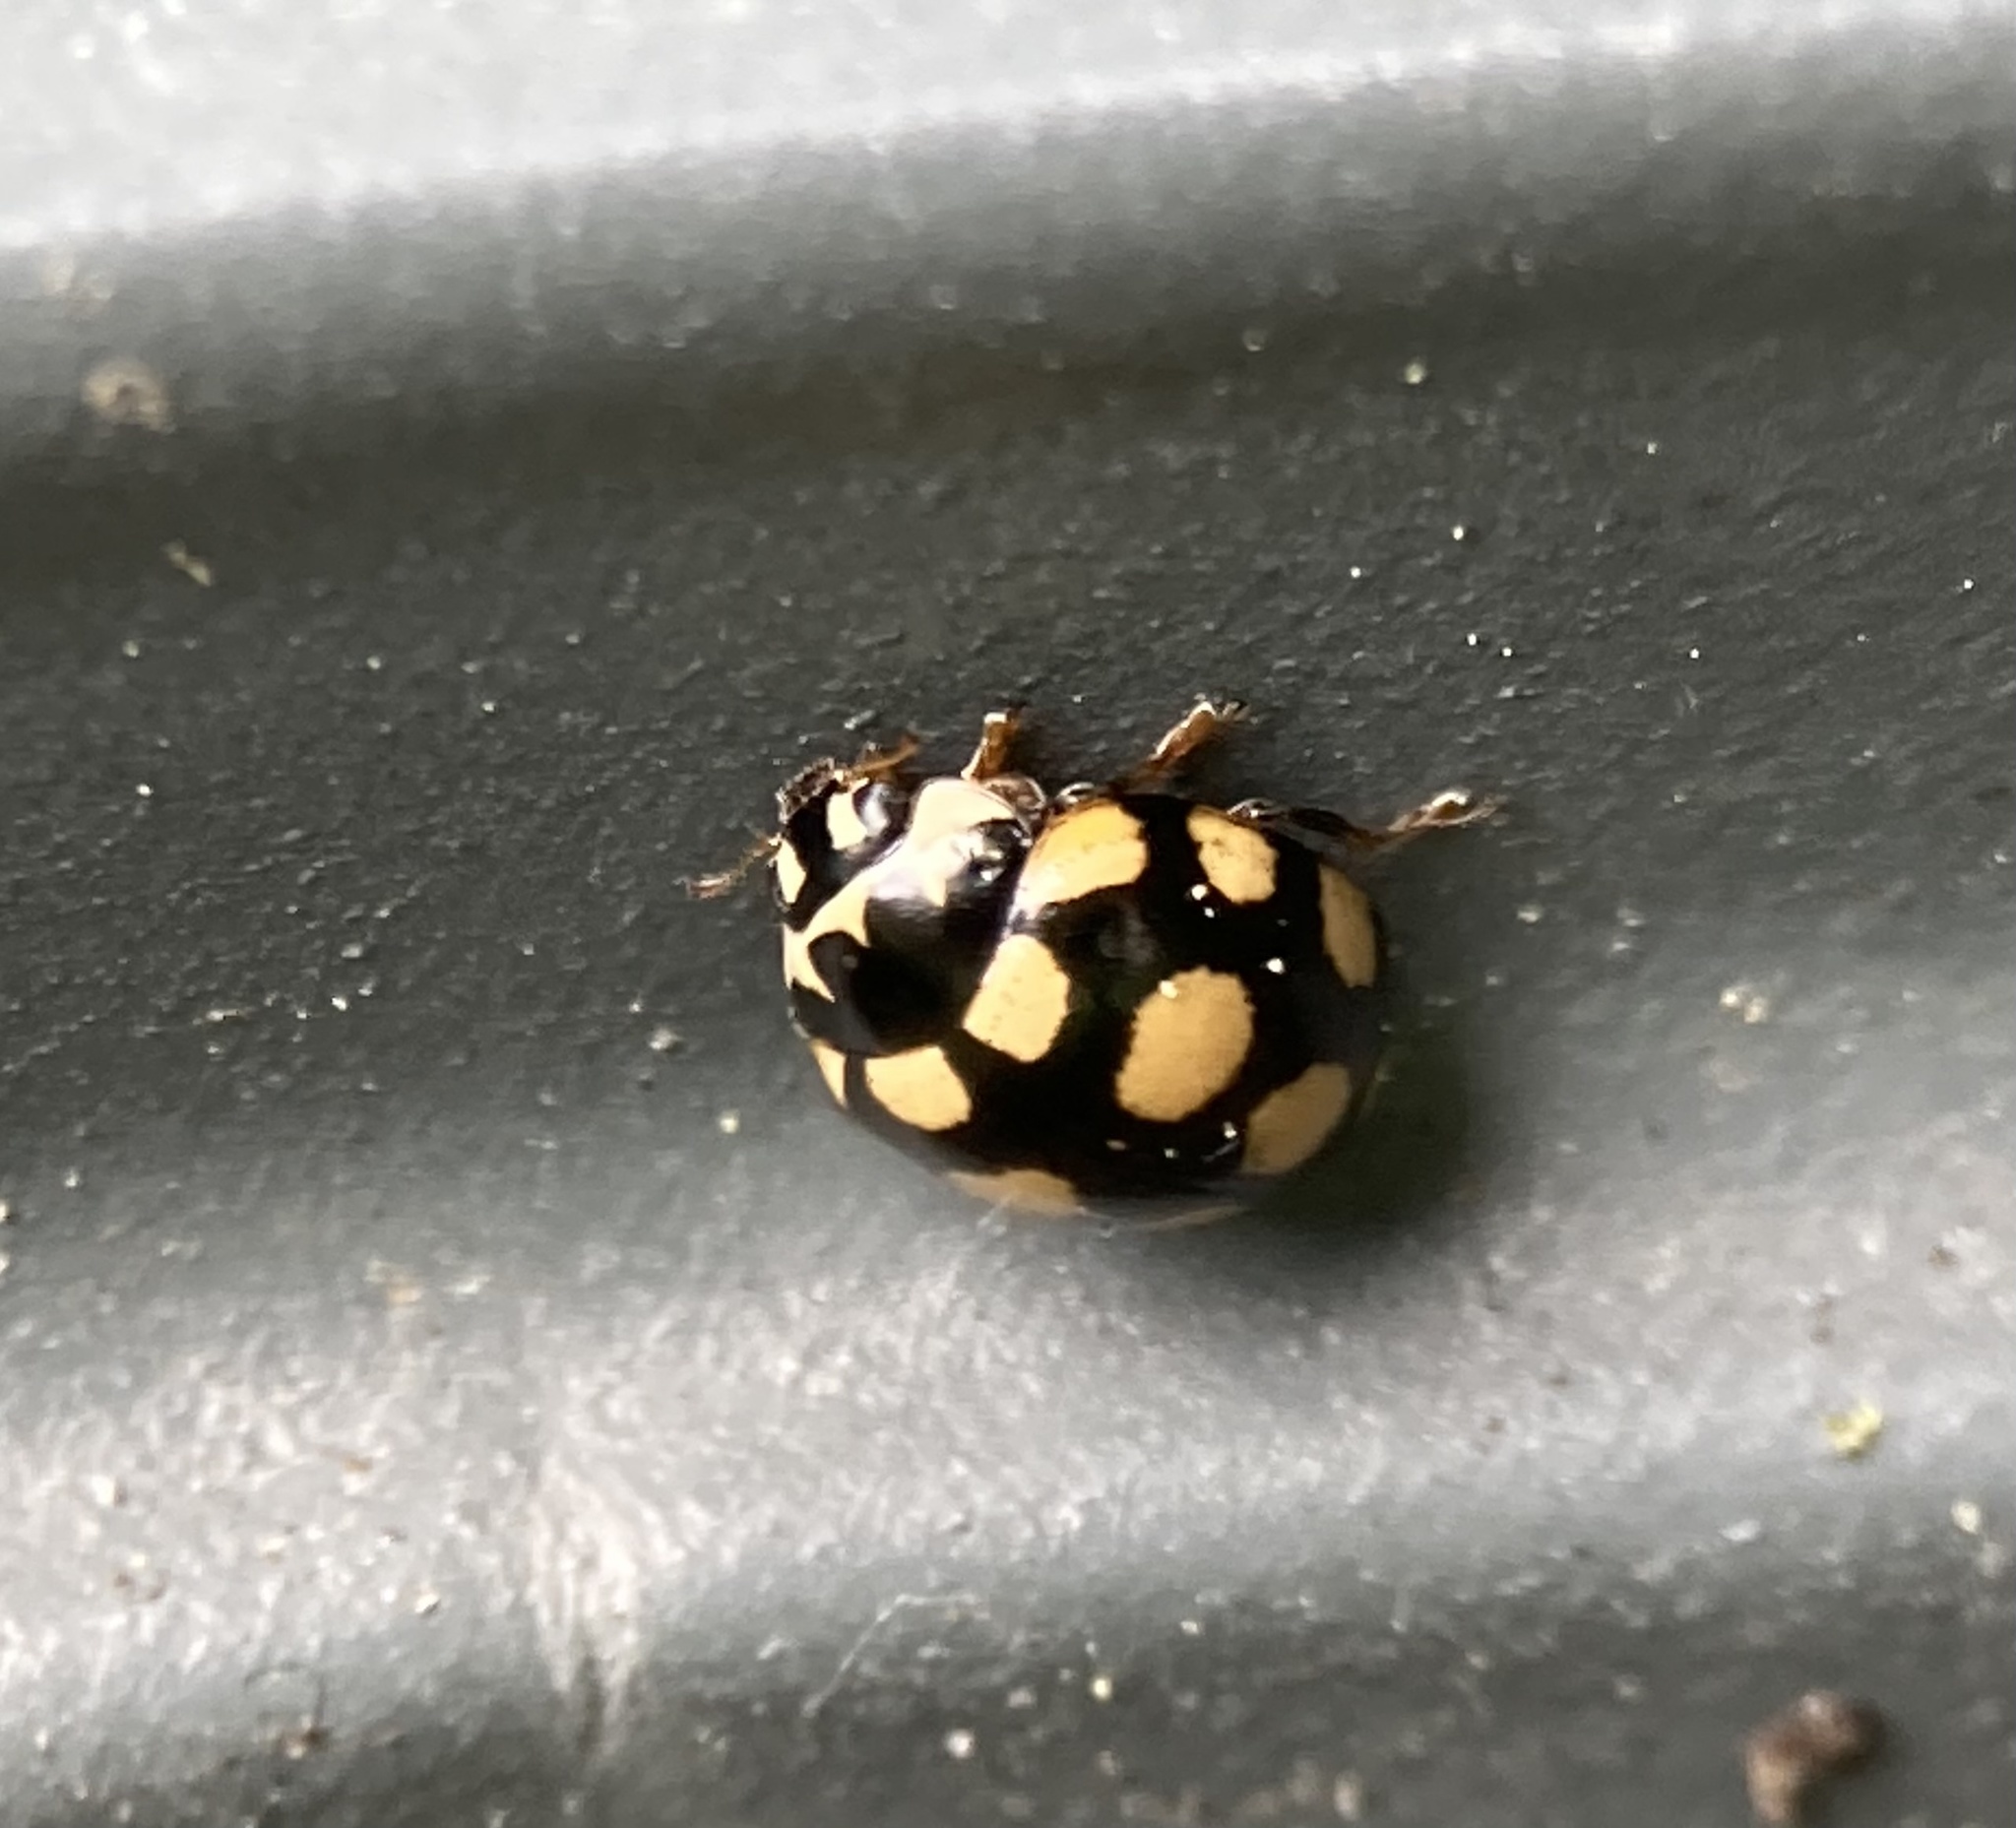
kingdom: Animalia
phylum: Arthropoda
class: Insecta
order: Coleoptera
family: Coccinellidae
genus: Coccinula
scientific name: Coccinula quatuordecimpustulata
